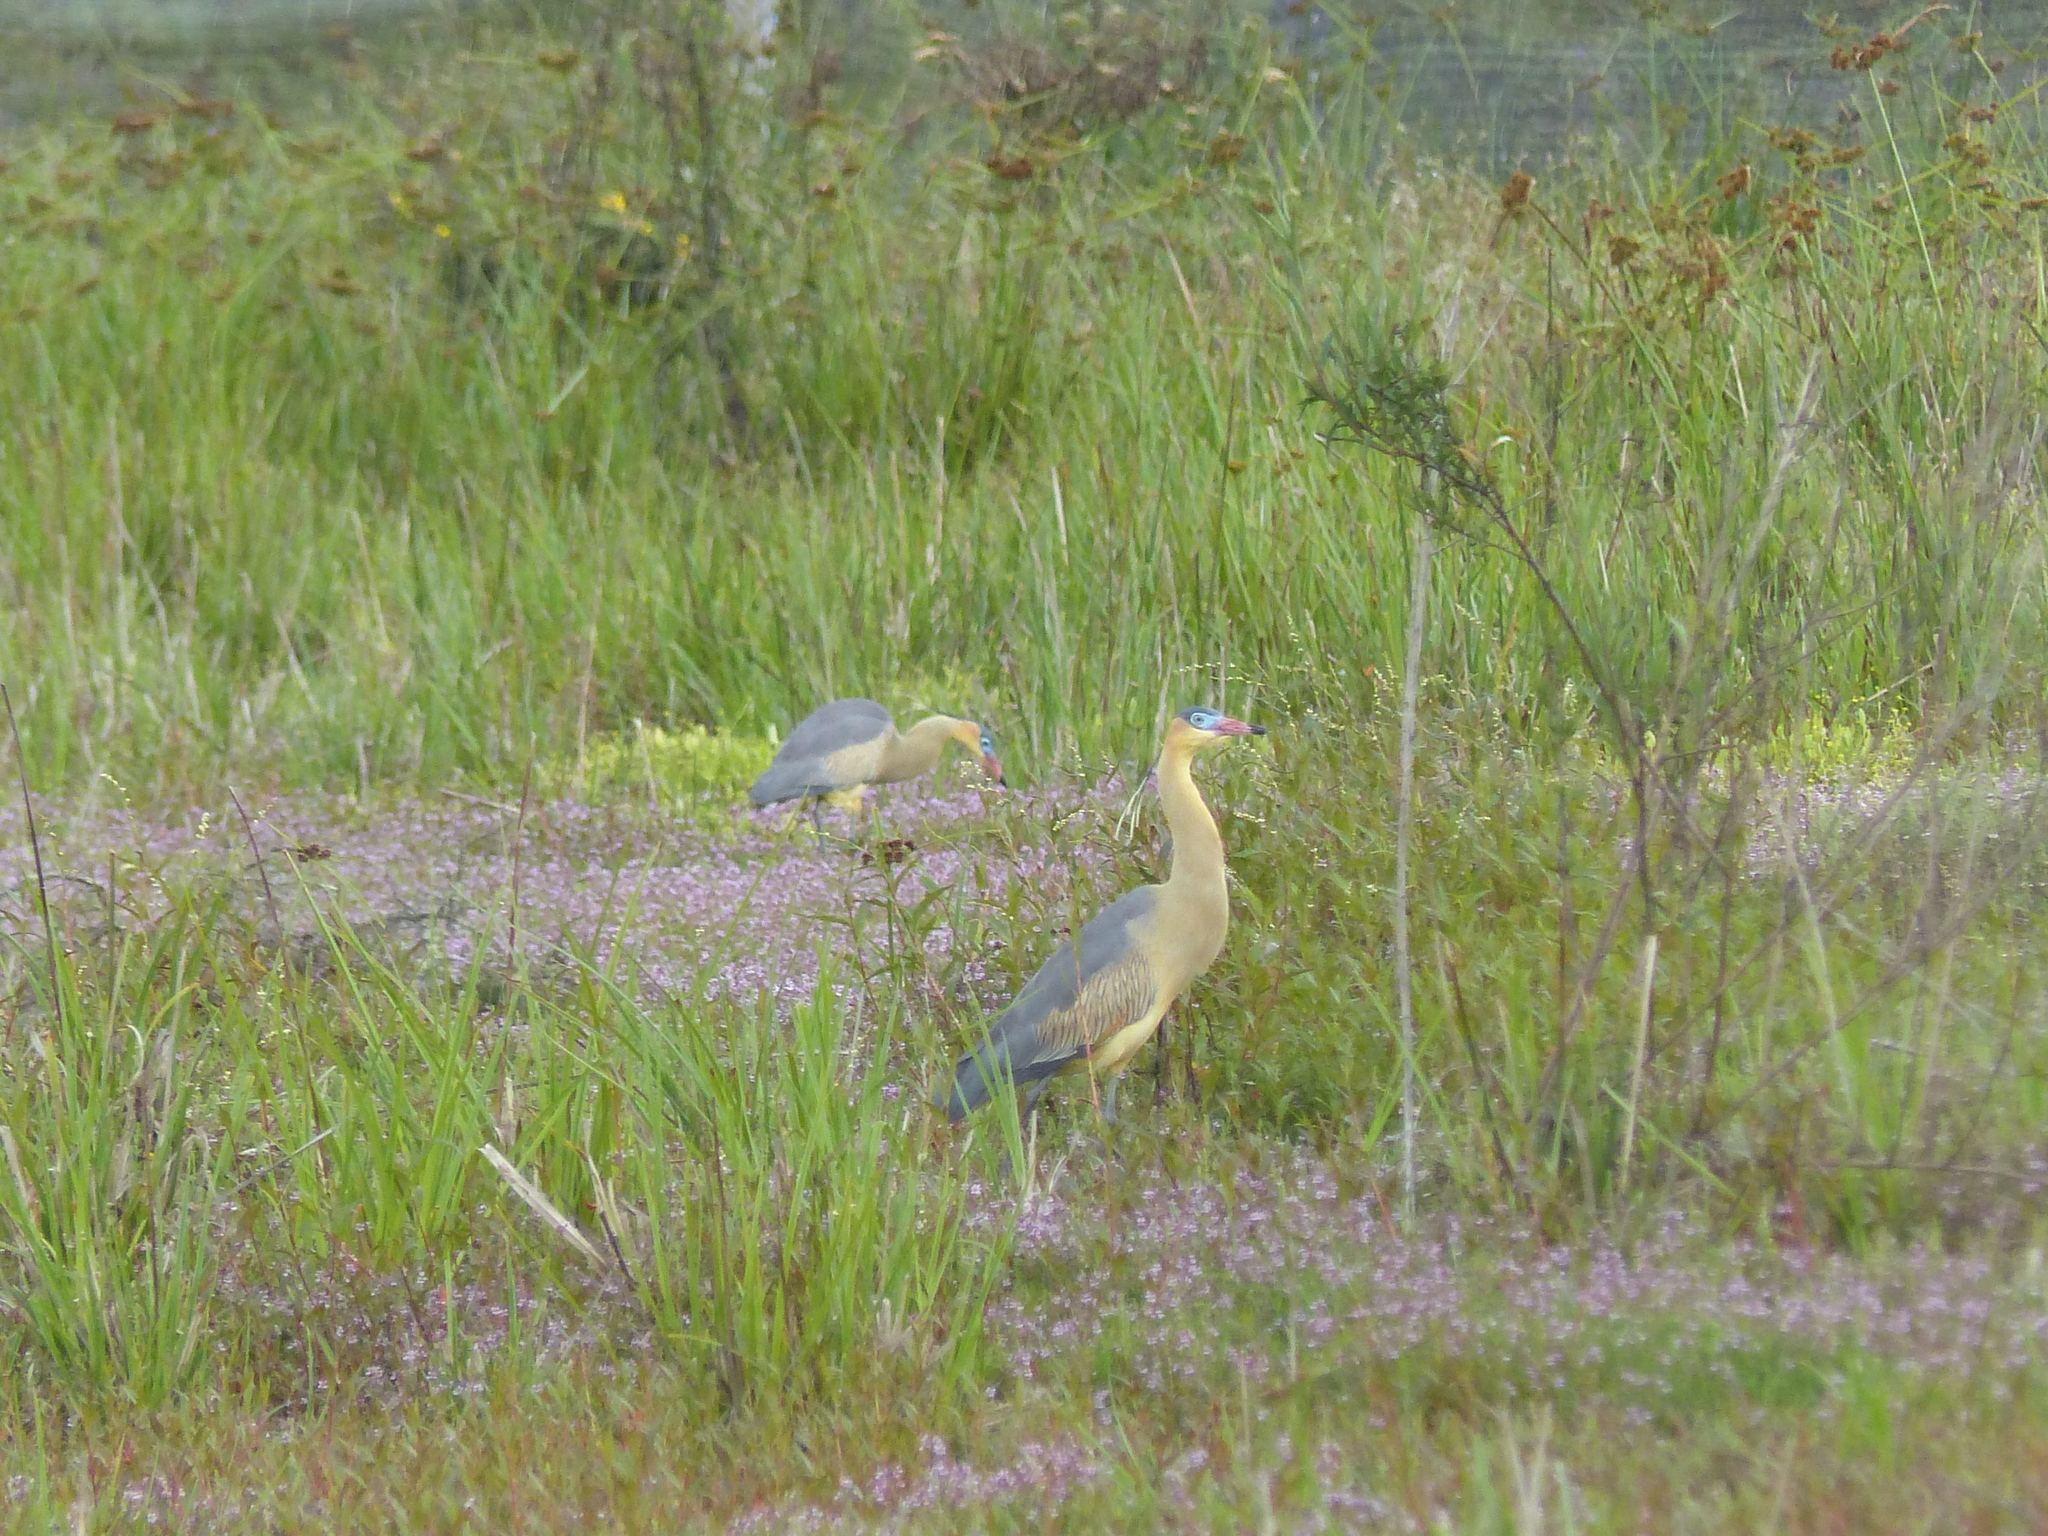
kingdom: Animalia
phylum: Chordata
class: Aves
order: Pelecaniformes
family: Ardeidae
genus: Syrigma
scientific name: Syrigma sibilatrix
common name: Whistling heron
